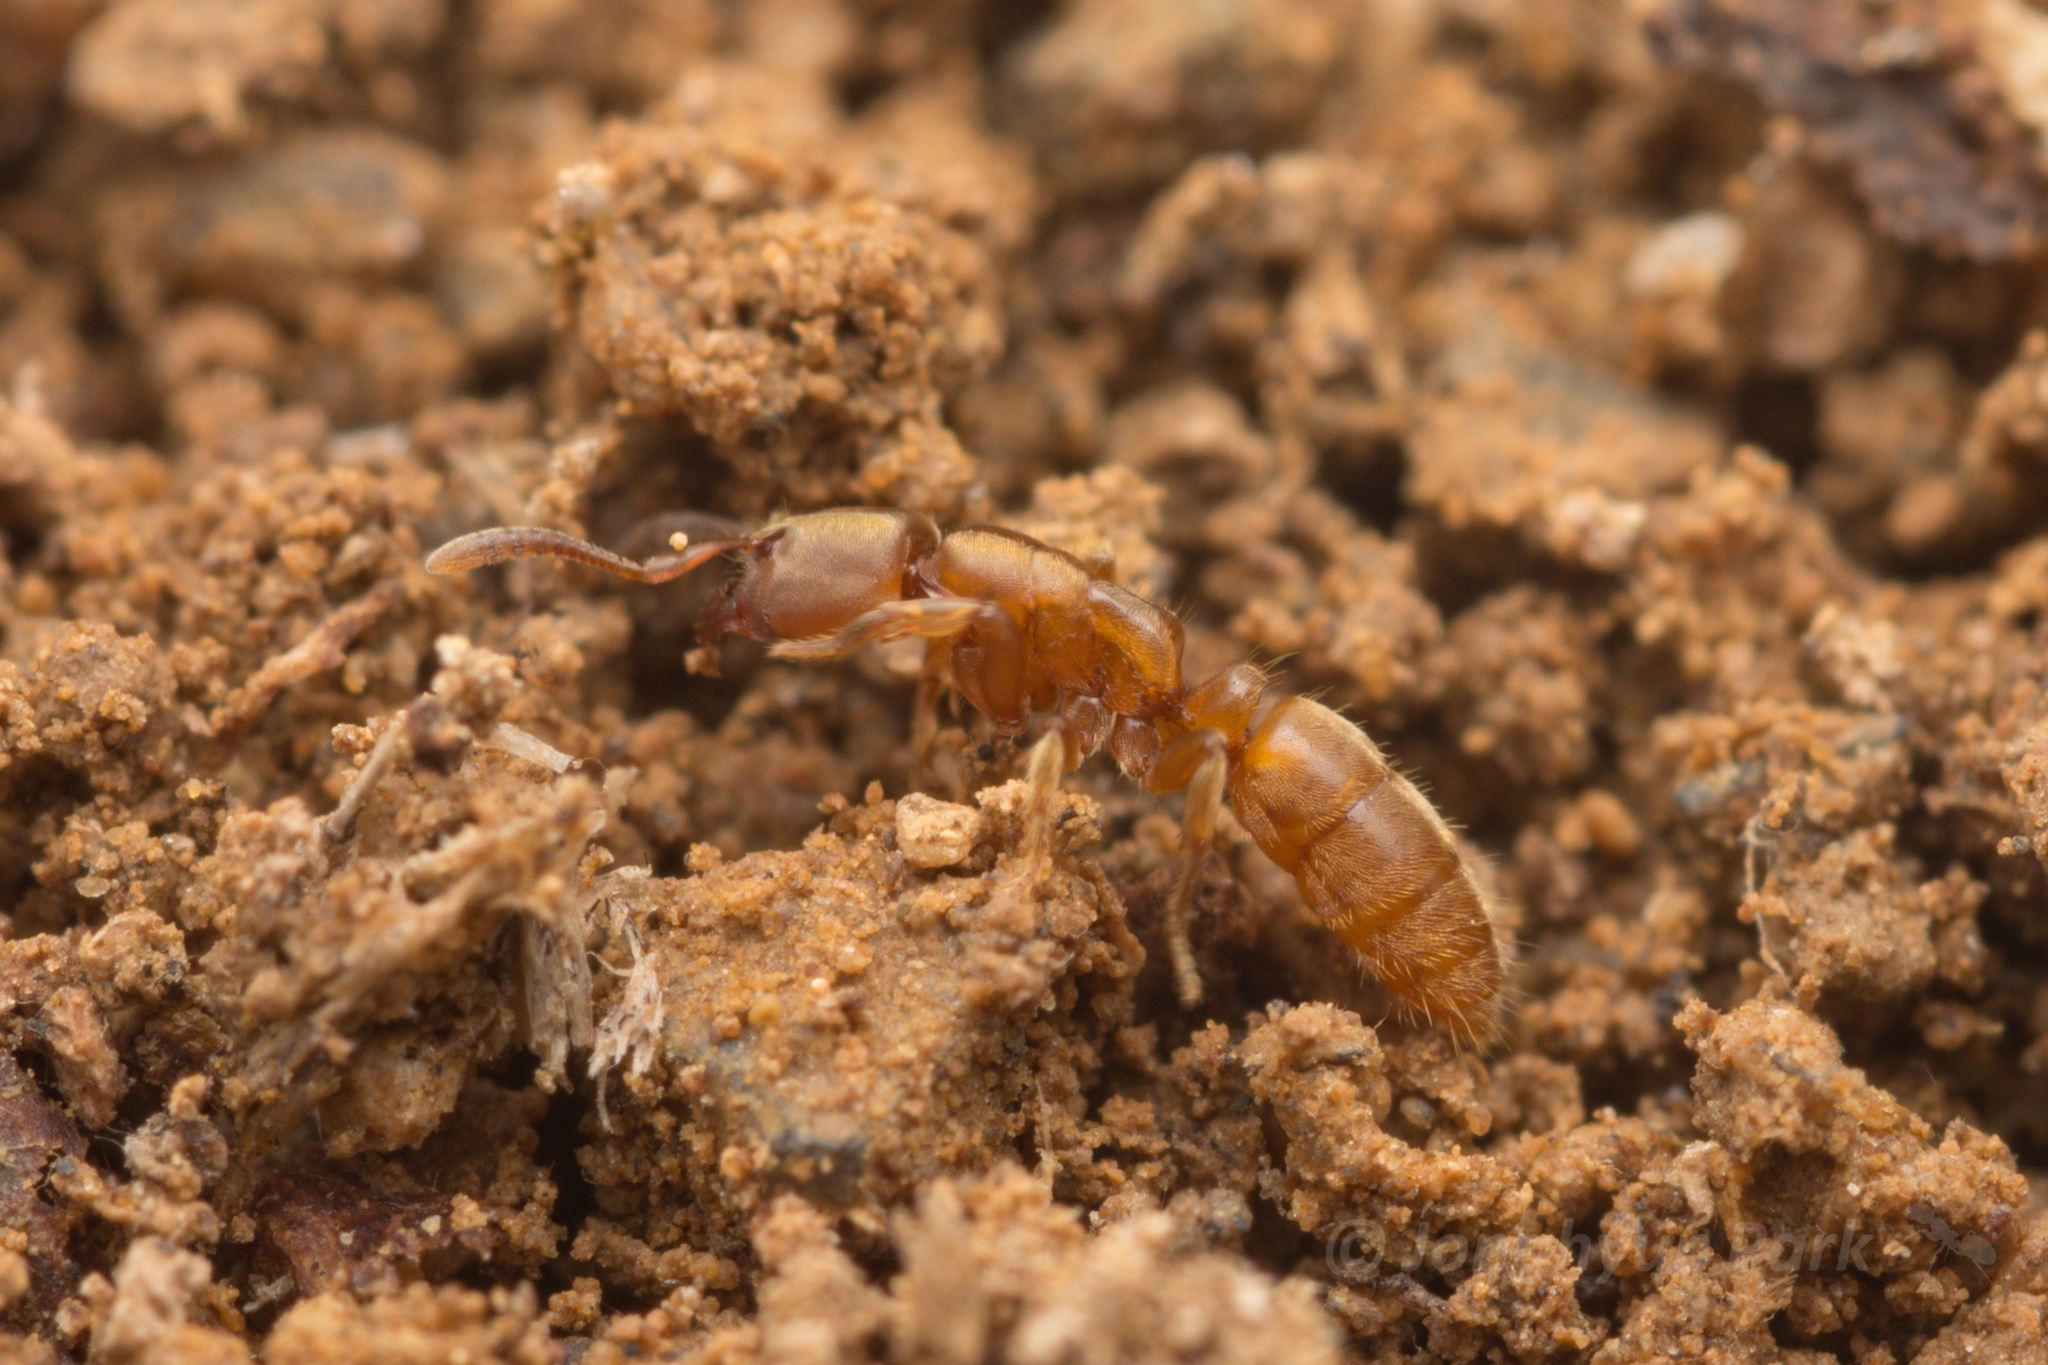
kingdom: Animalia
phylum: Arthropoda
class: Insecta
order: Hymenoptera
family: Formicidae
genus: Cryptopone
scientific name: Cryptopone sauteri
